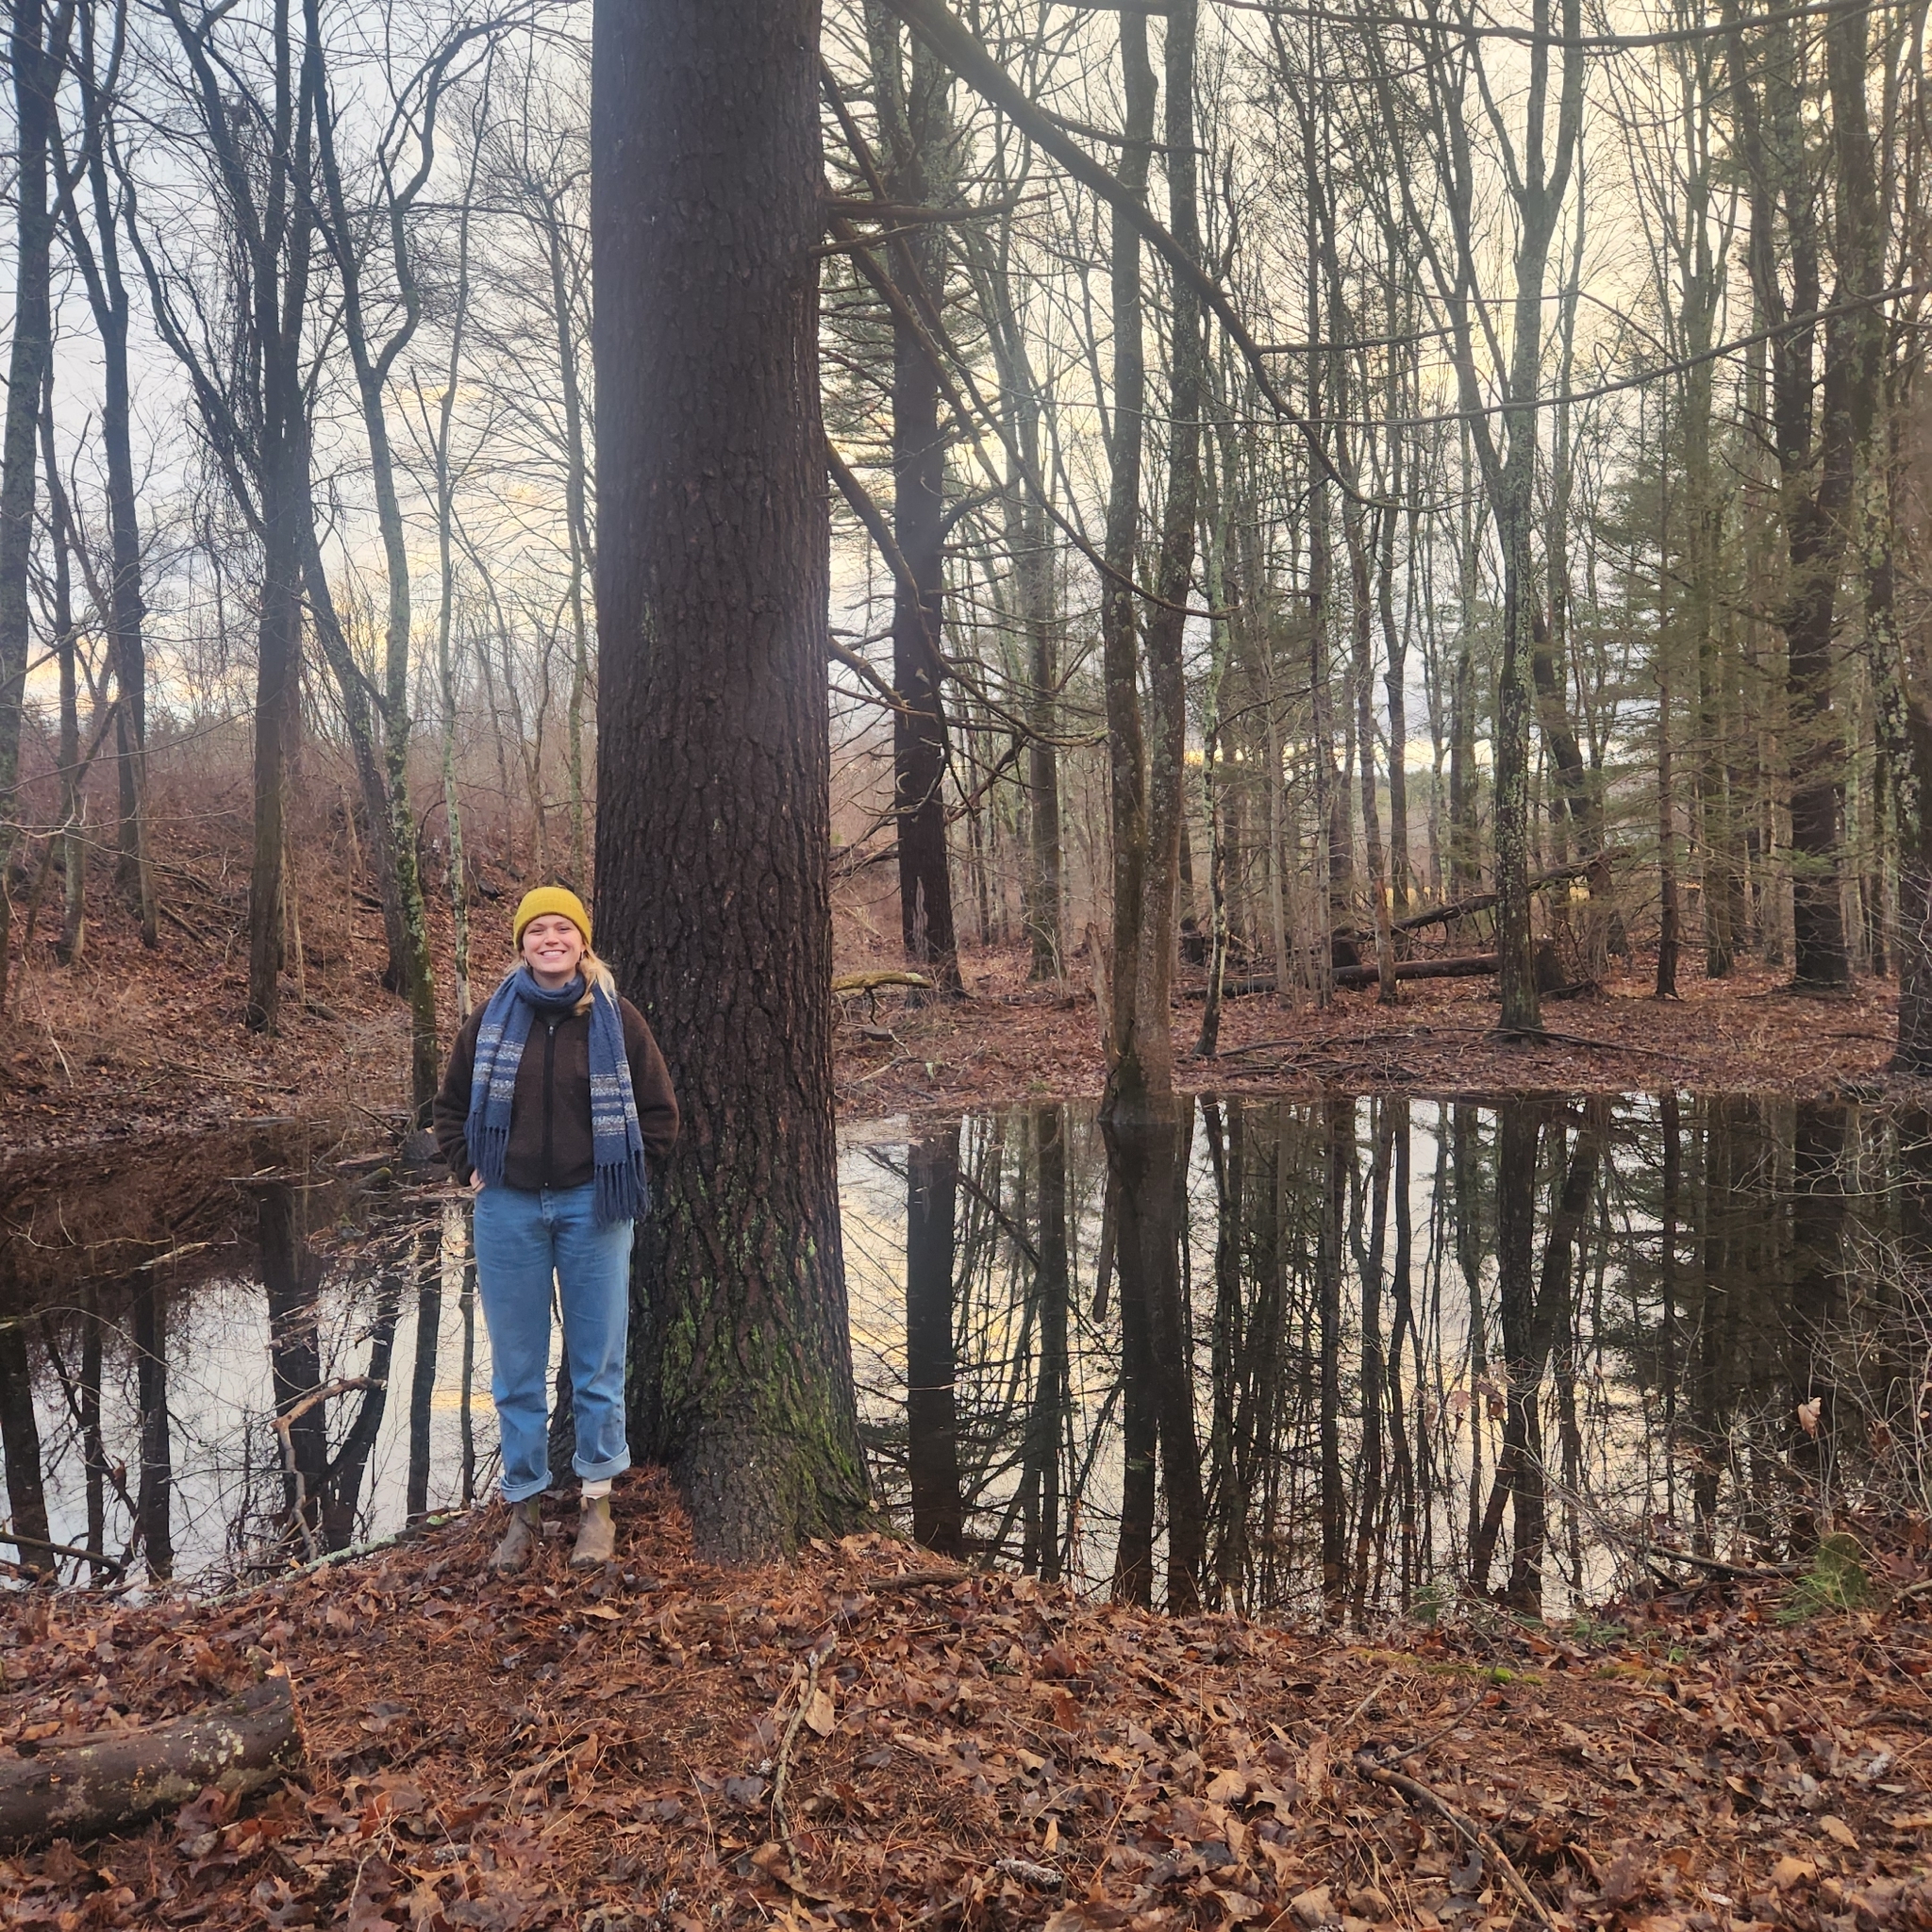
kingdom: Plantae
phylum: Tracheophyta
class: Pinopsida
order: Pinales
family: Pinaceae
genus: Pinus
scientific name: Pinus strobus
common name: Weymouth pine
